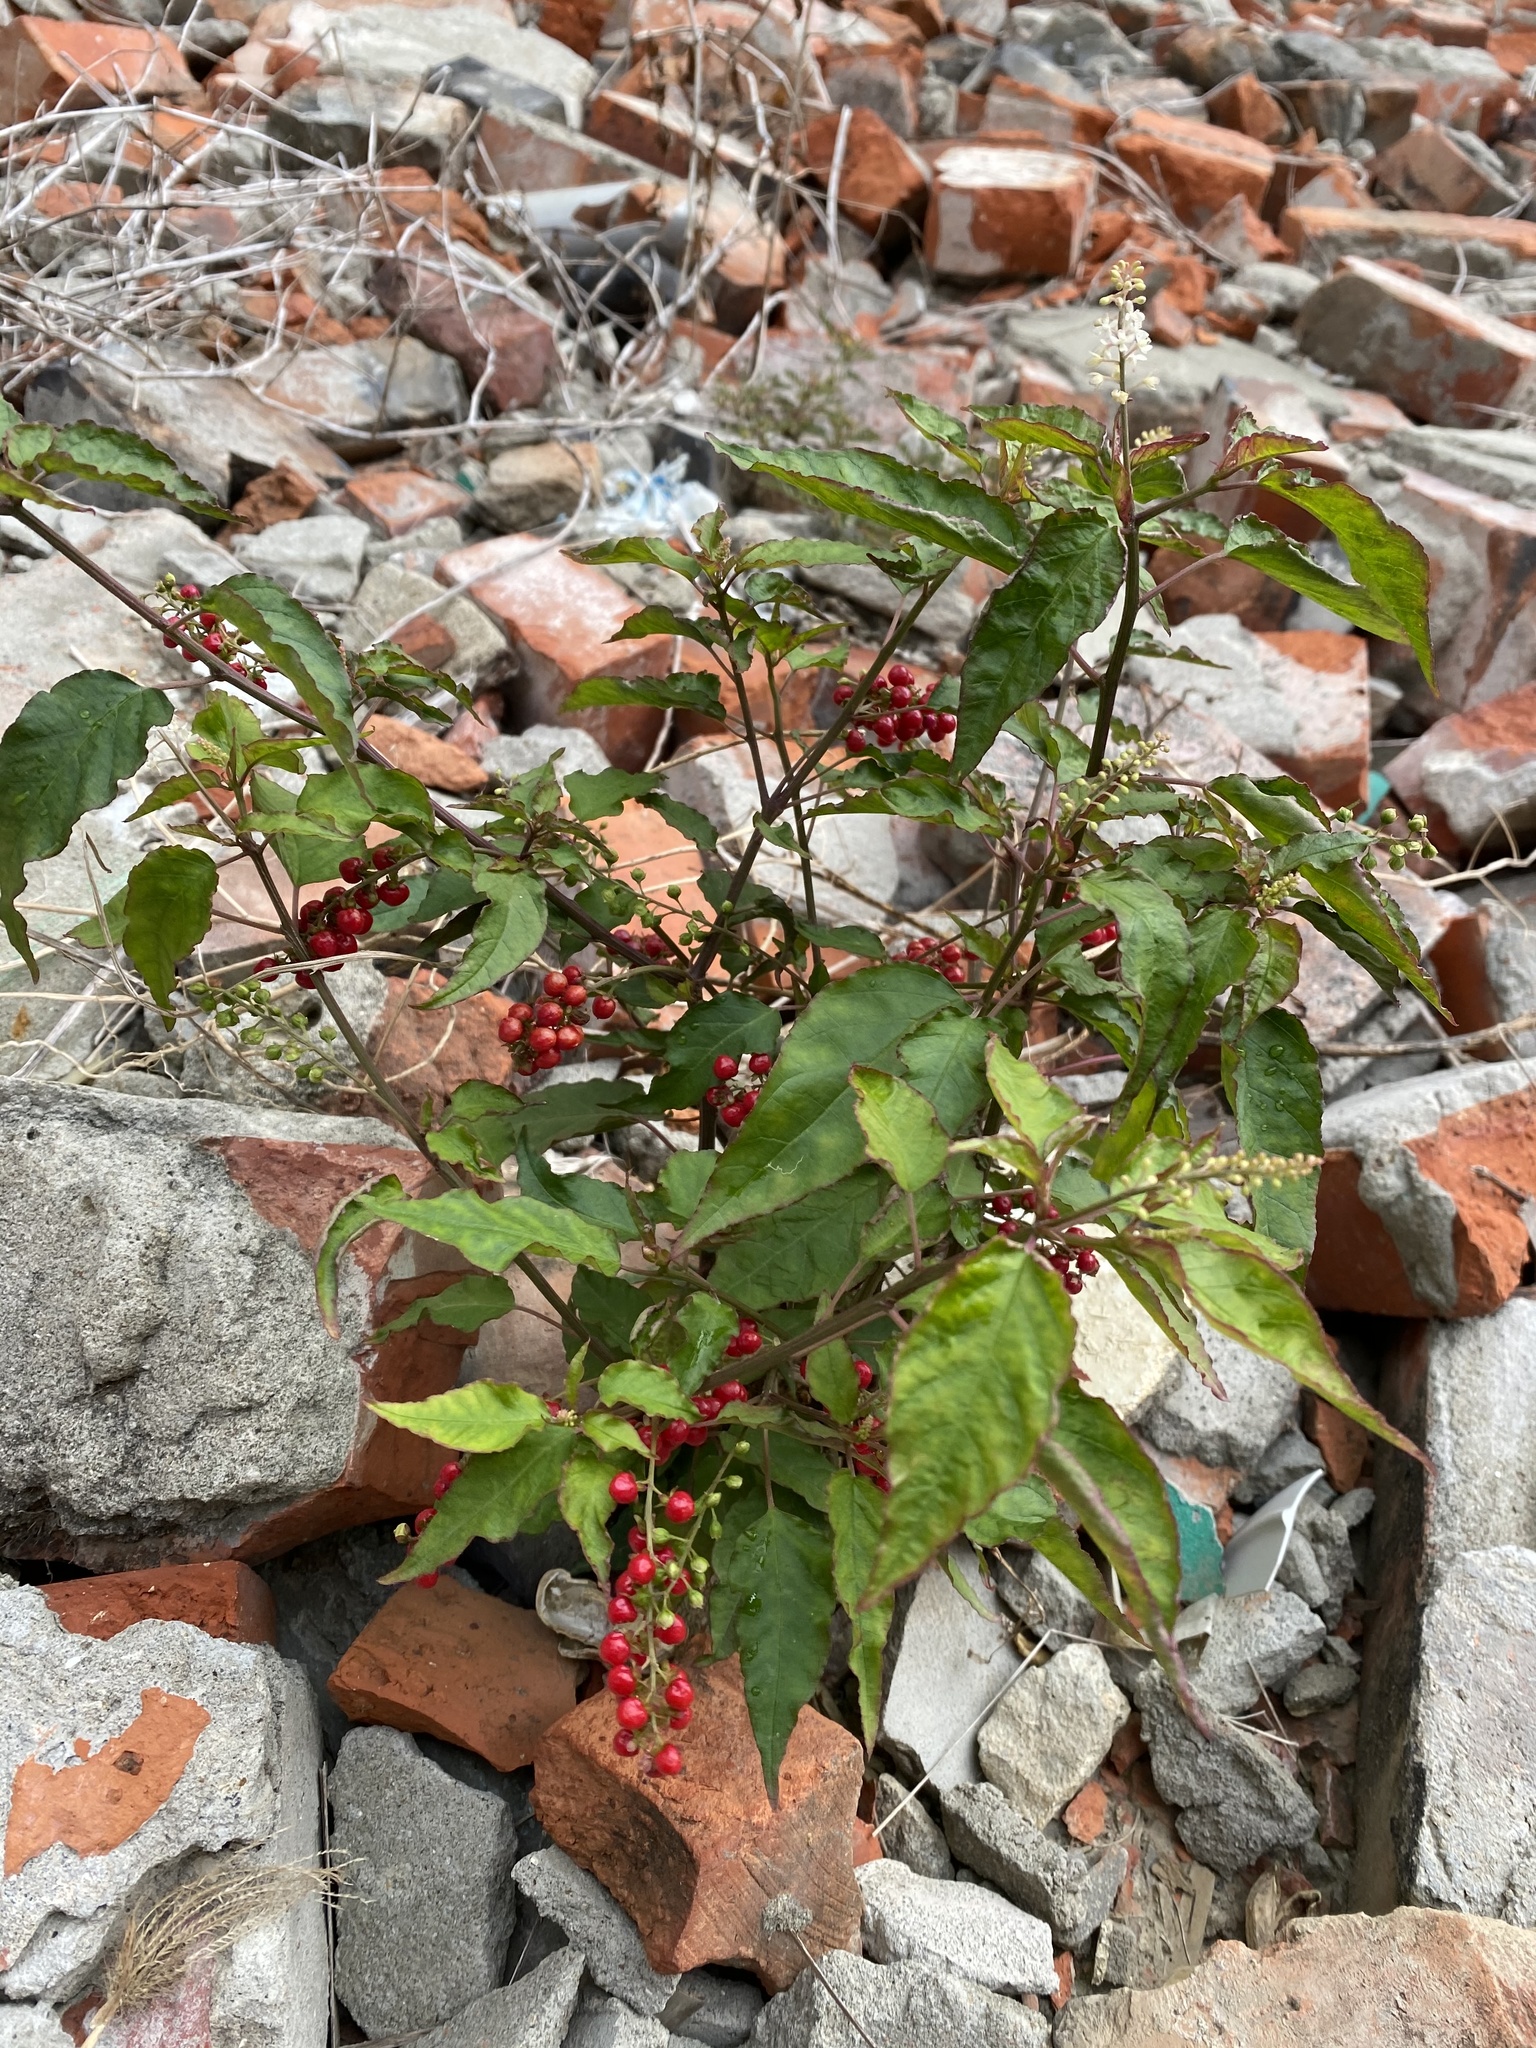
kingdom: Plantae
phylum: Tracheophyta
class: Magnoliopsida
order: Caryophyllales
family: Phytolaccaceae
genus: Rivina
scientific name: Rivina humilis
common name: Rougeplant
